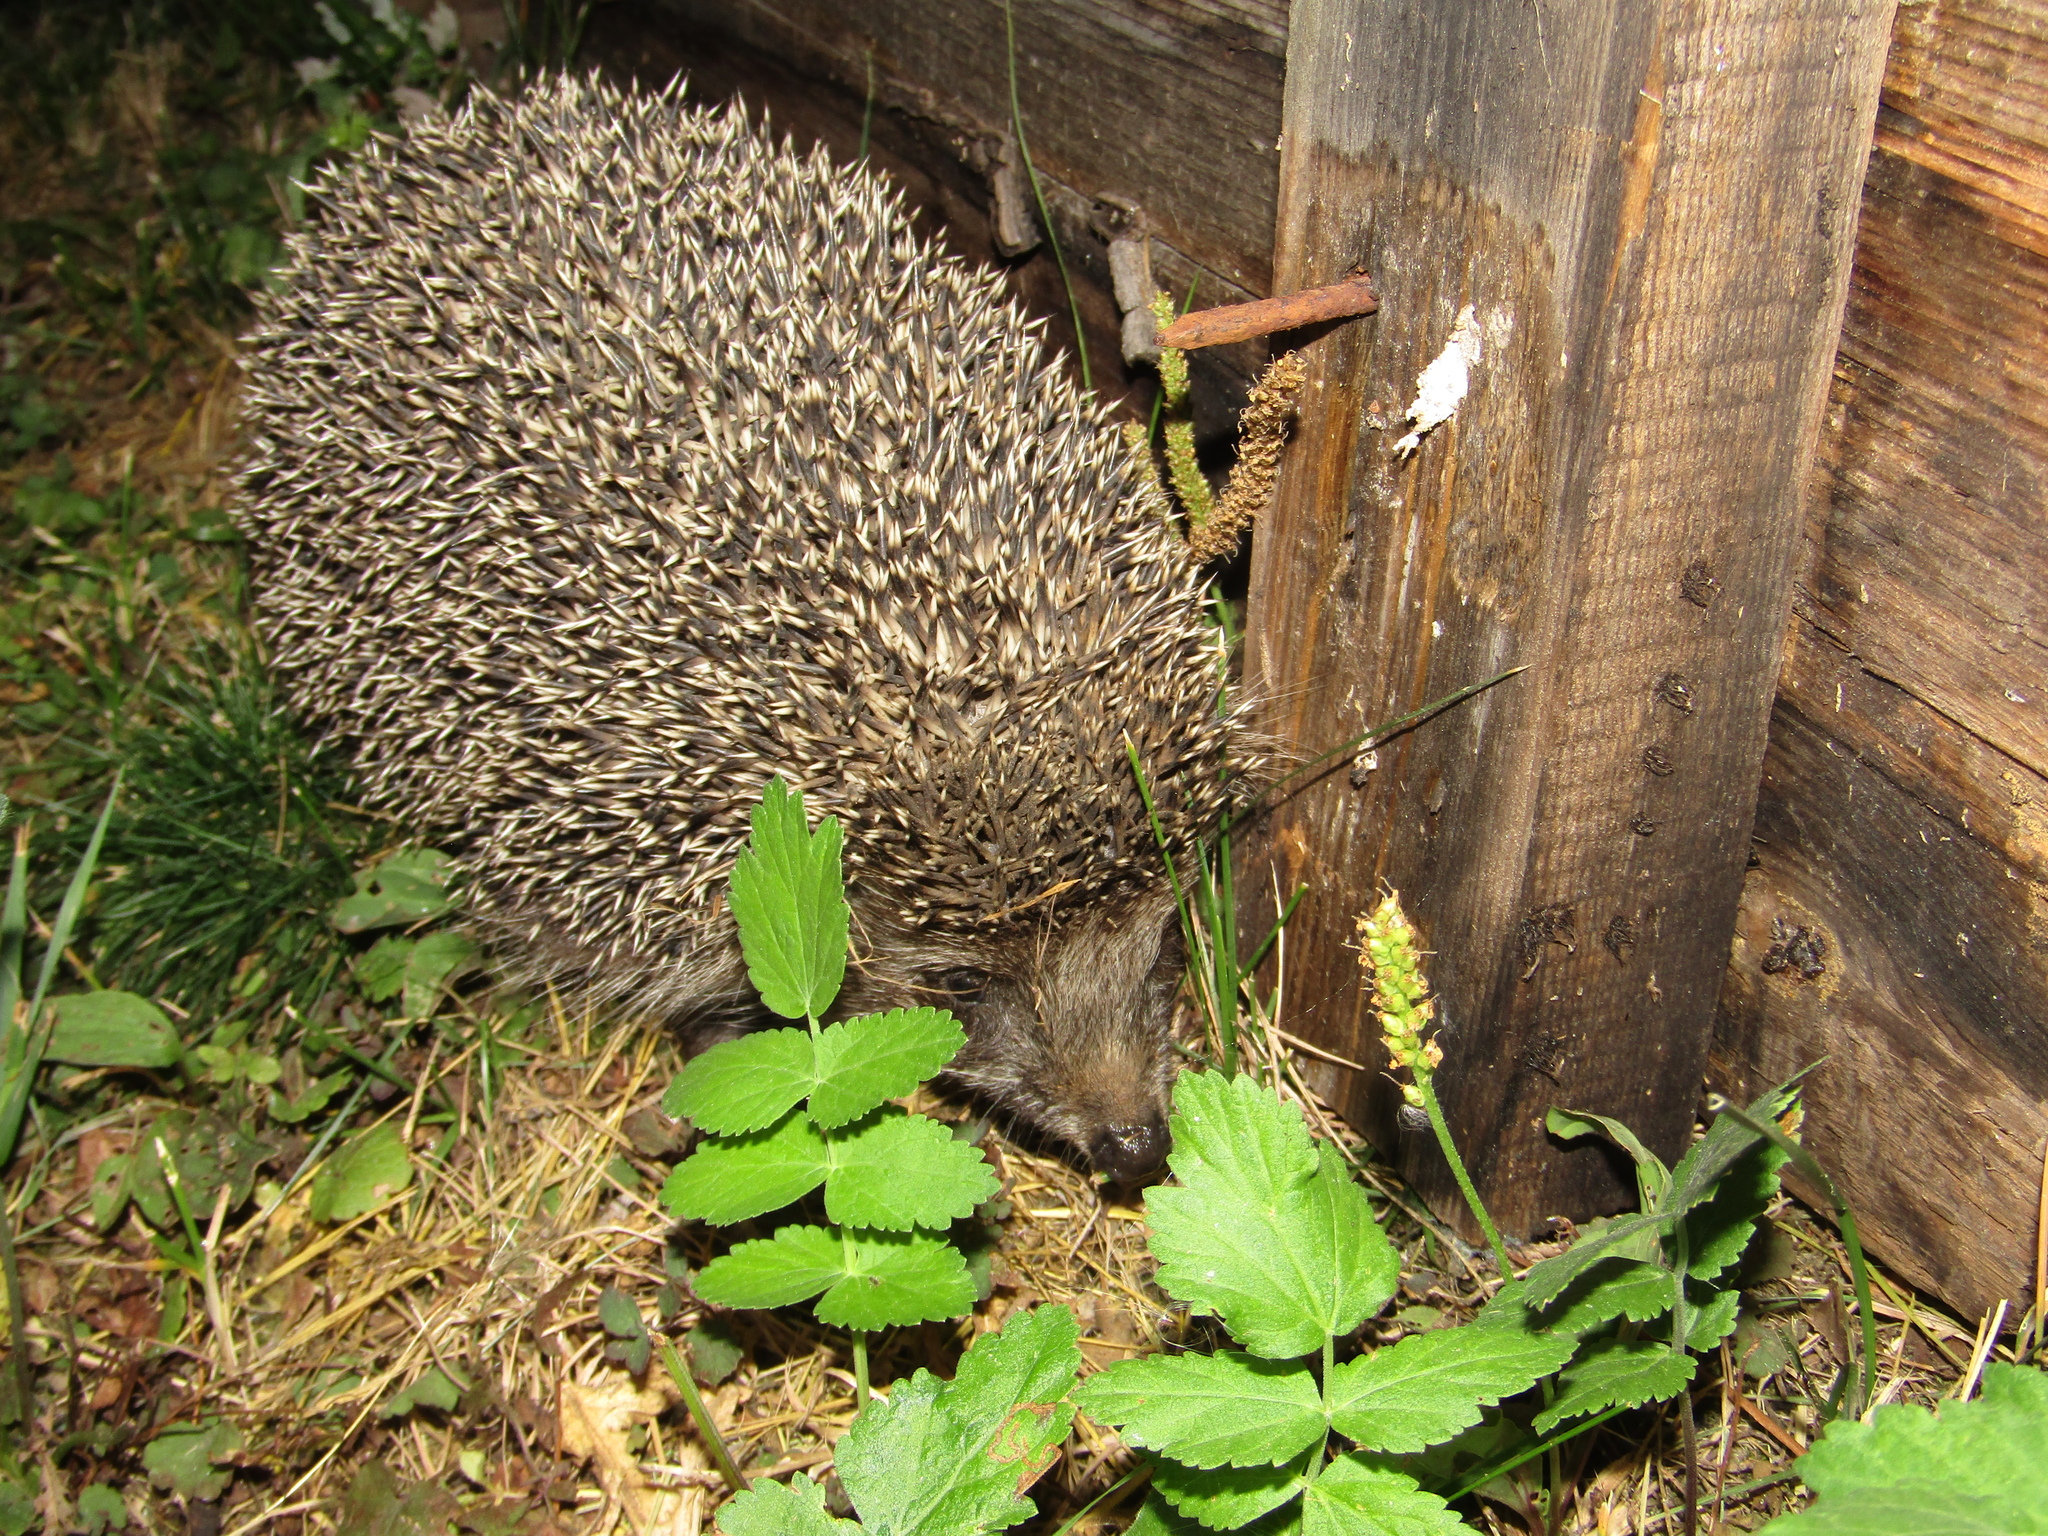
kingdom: Animalia
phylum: Chordata
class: Mammalia
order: Erinaceomorpha
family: Erinaceidae
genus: Erinaceus
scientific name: Erinaceus roumanicus
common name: Northern white-breasted hedgehog
